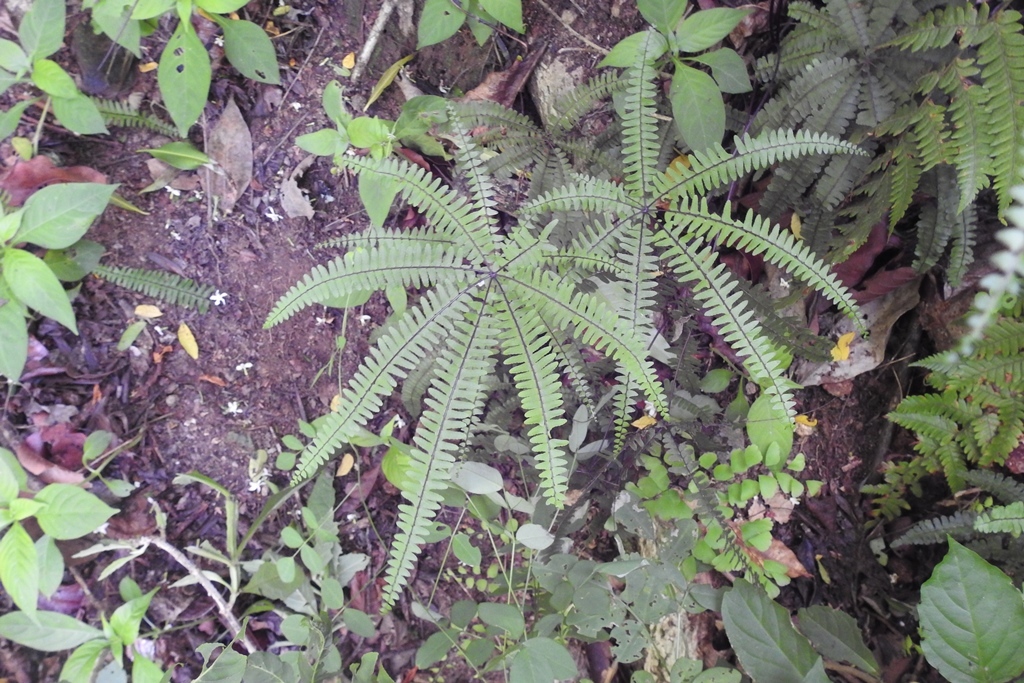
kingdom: Plantae
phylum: Tracheophyta
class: Polypodiopsida
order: Polypodiales
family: Pteridaceae
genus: Adiantopsis
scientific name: Adiantopsis radiata
